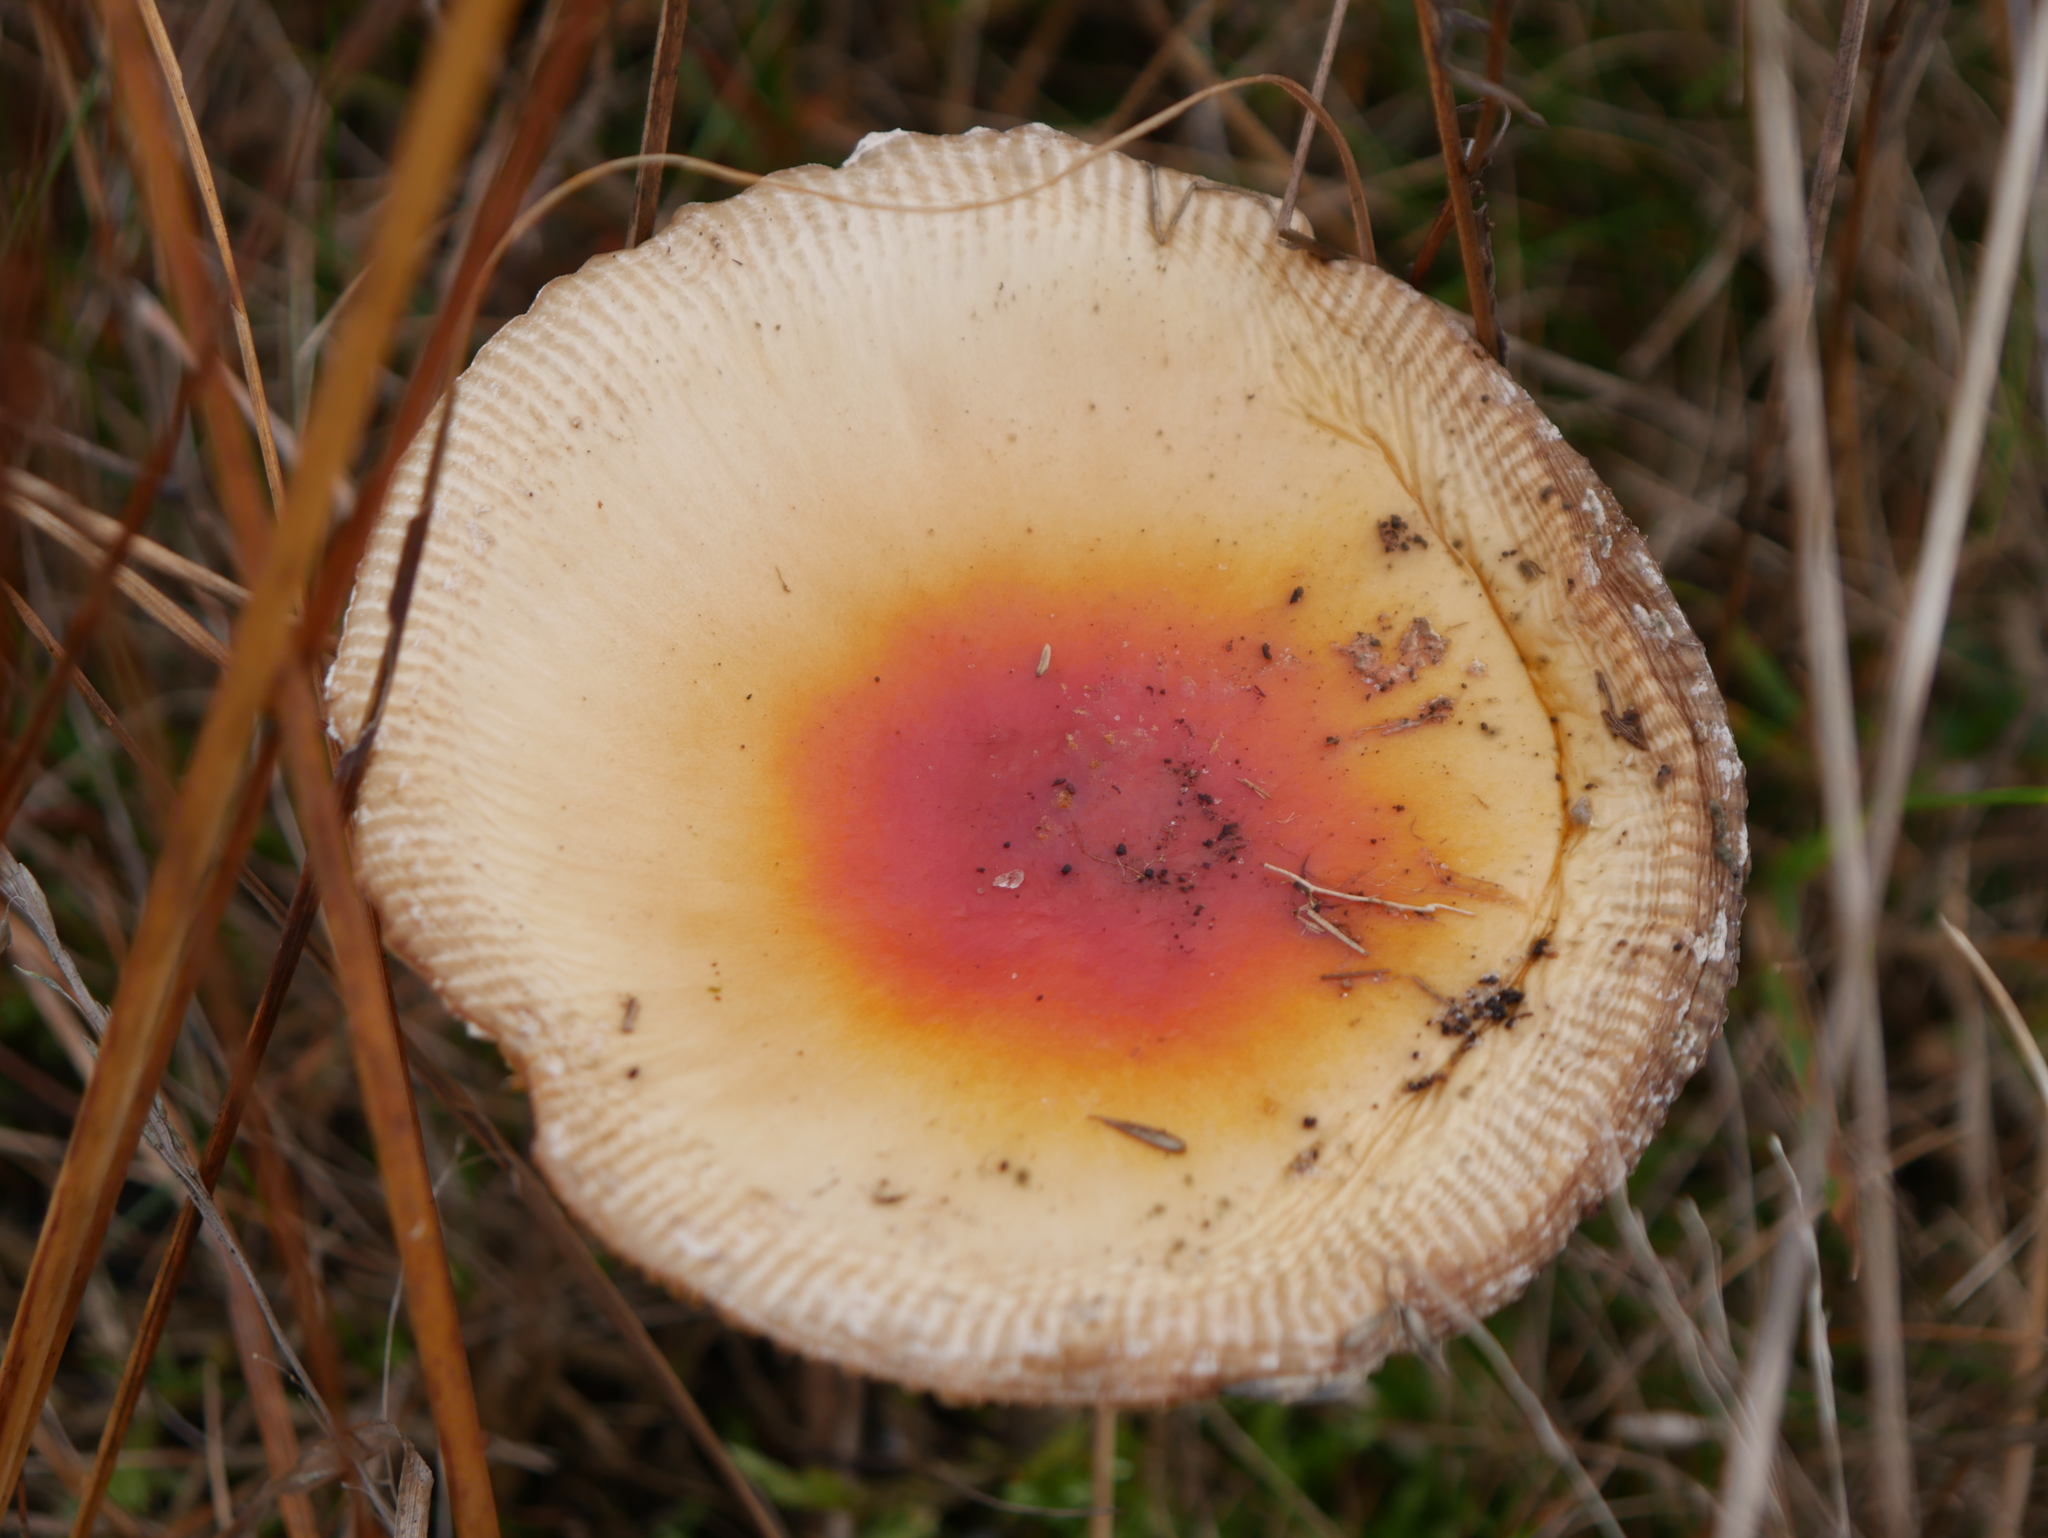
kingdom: Fungi
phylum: Basidiomycota
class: Agaricomycetes
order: Agaricales
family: Amanitaceae
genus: Amanita
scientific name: Amanita muscaria
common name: Fly agaric
